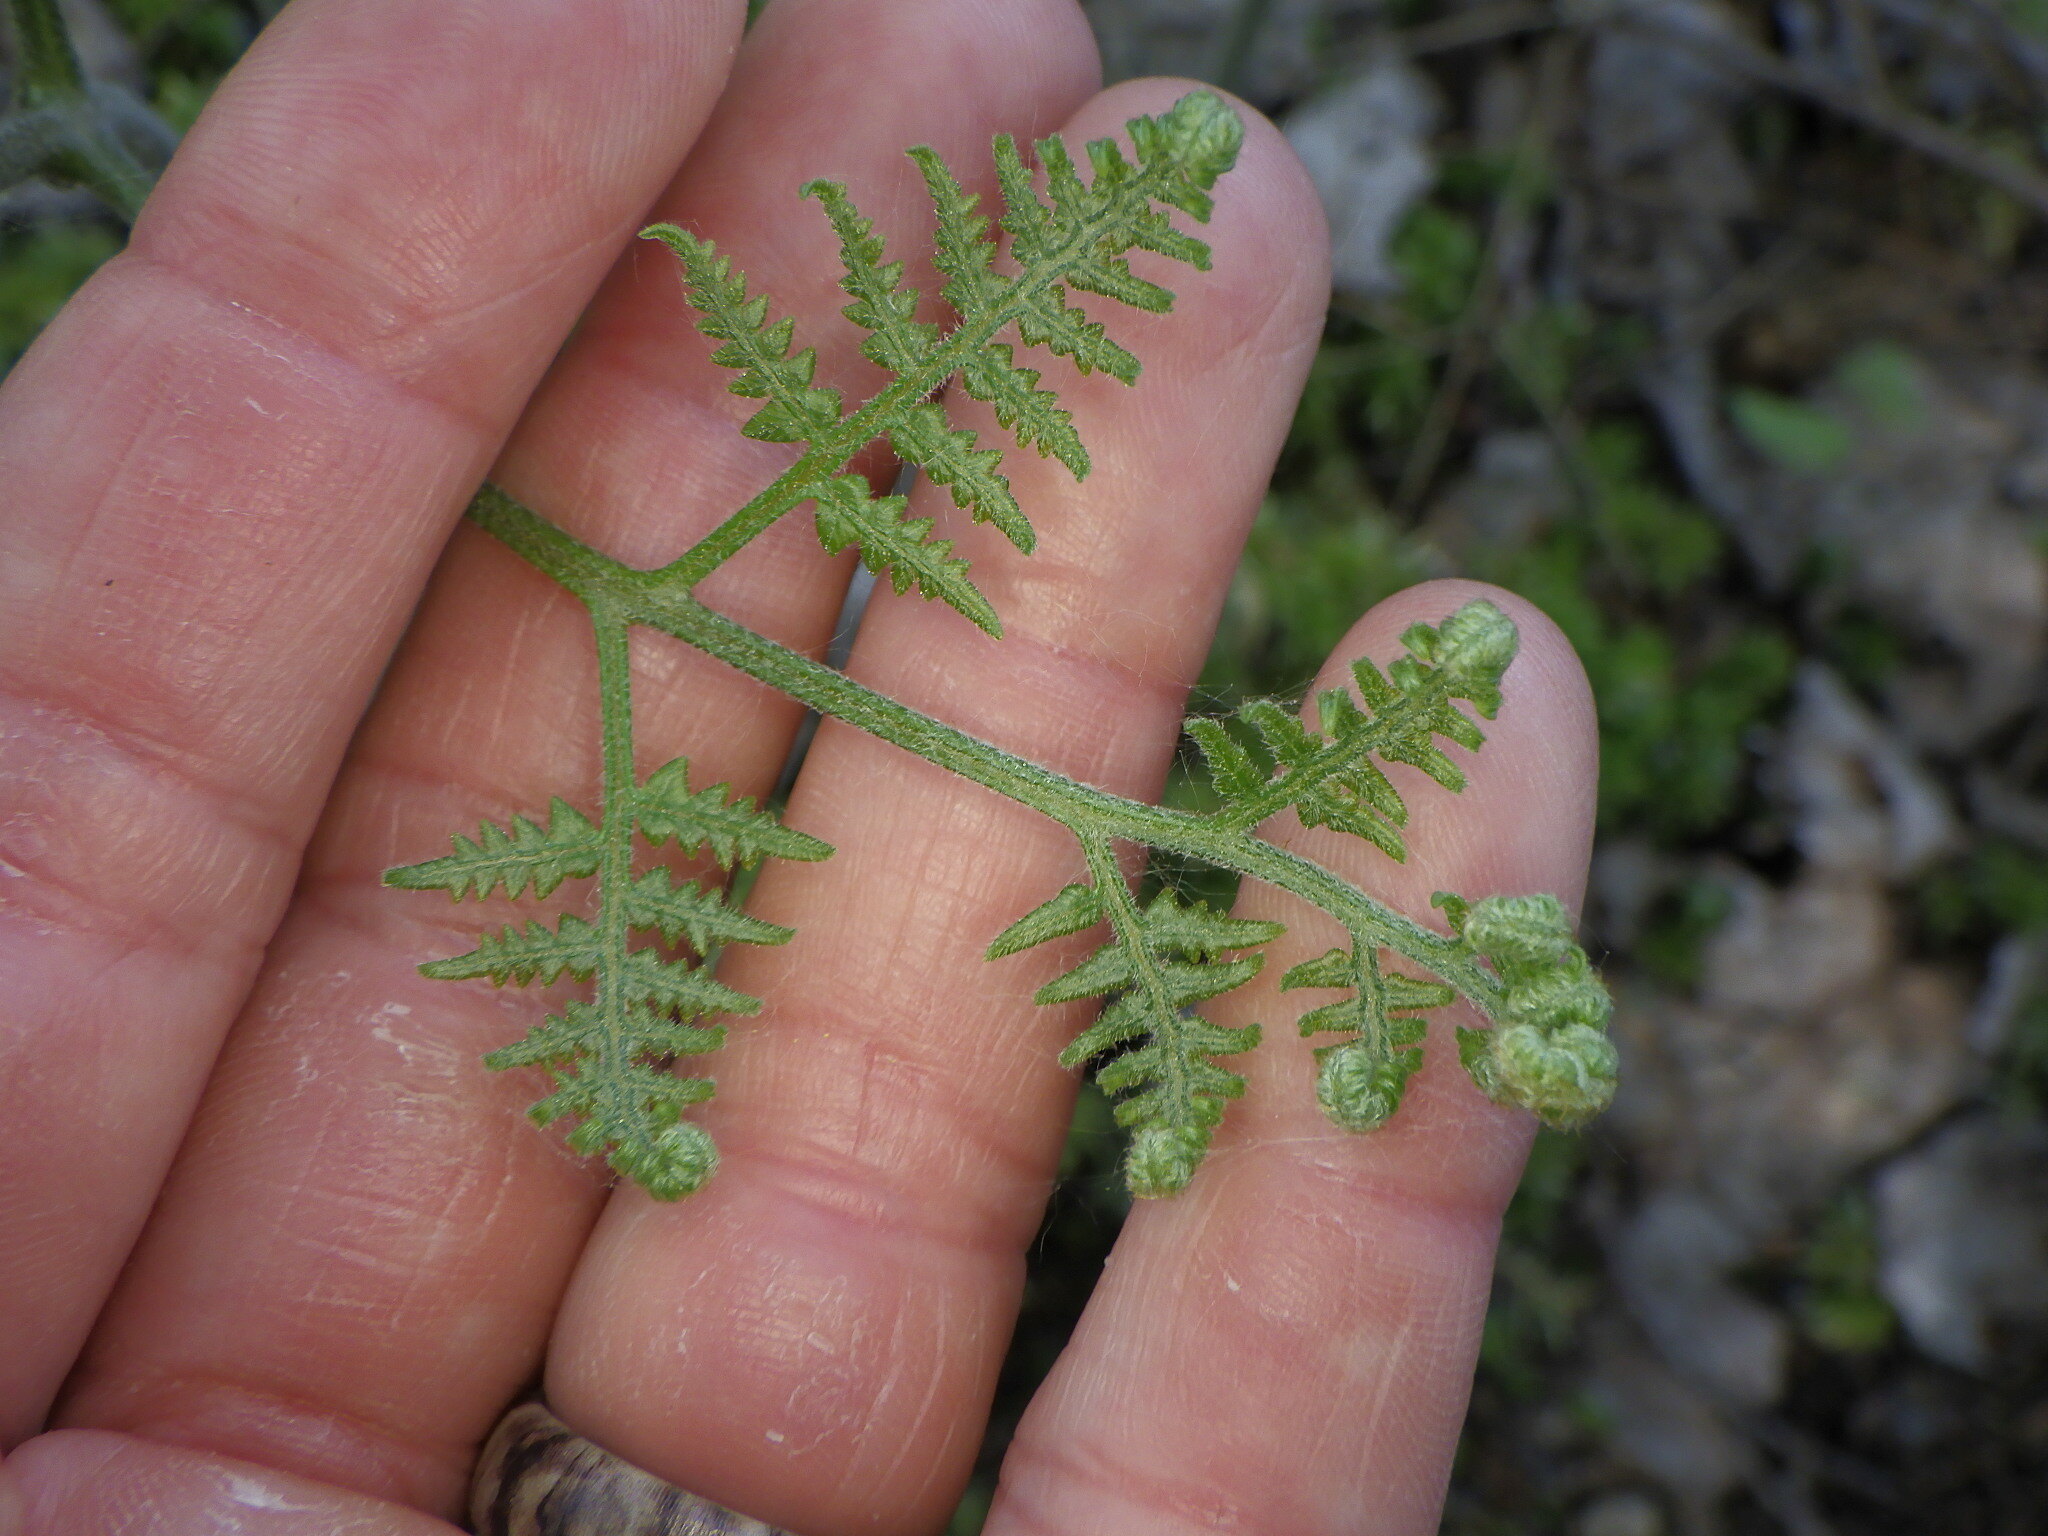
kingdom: Plantae
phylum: Tracheophyta
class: Polypodiopsida
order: Polypodiales
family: Dennstaedtiaceae
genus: Pteridium
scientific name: Pteridium aquilinum
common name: Bracken
